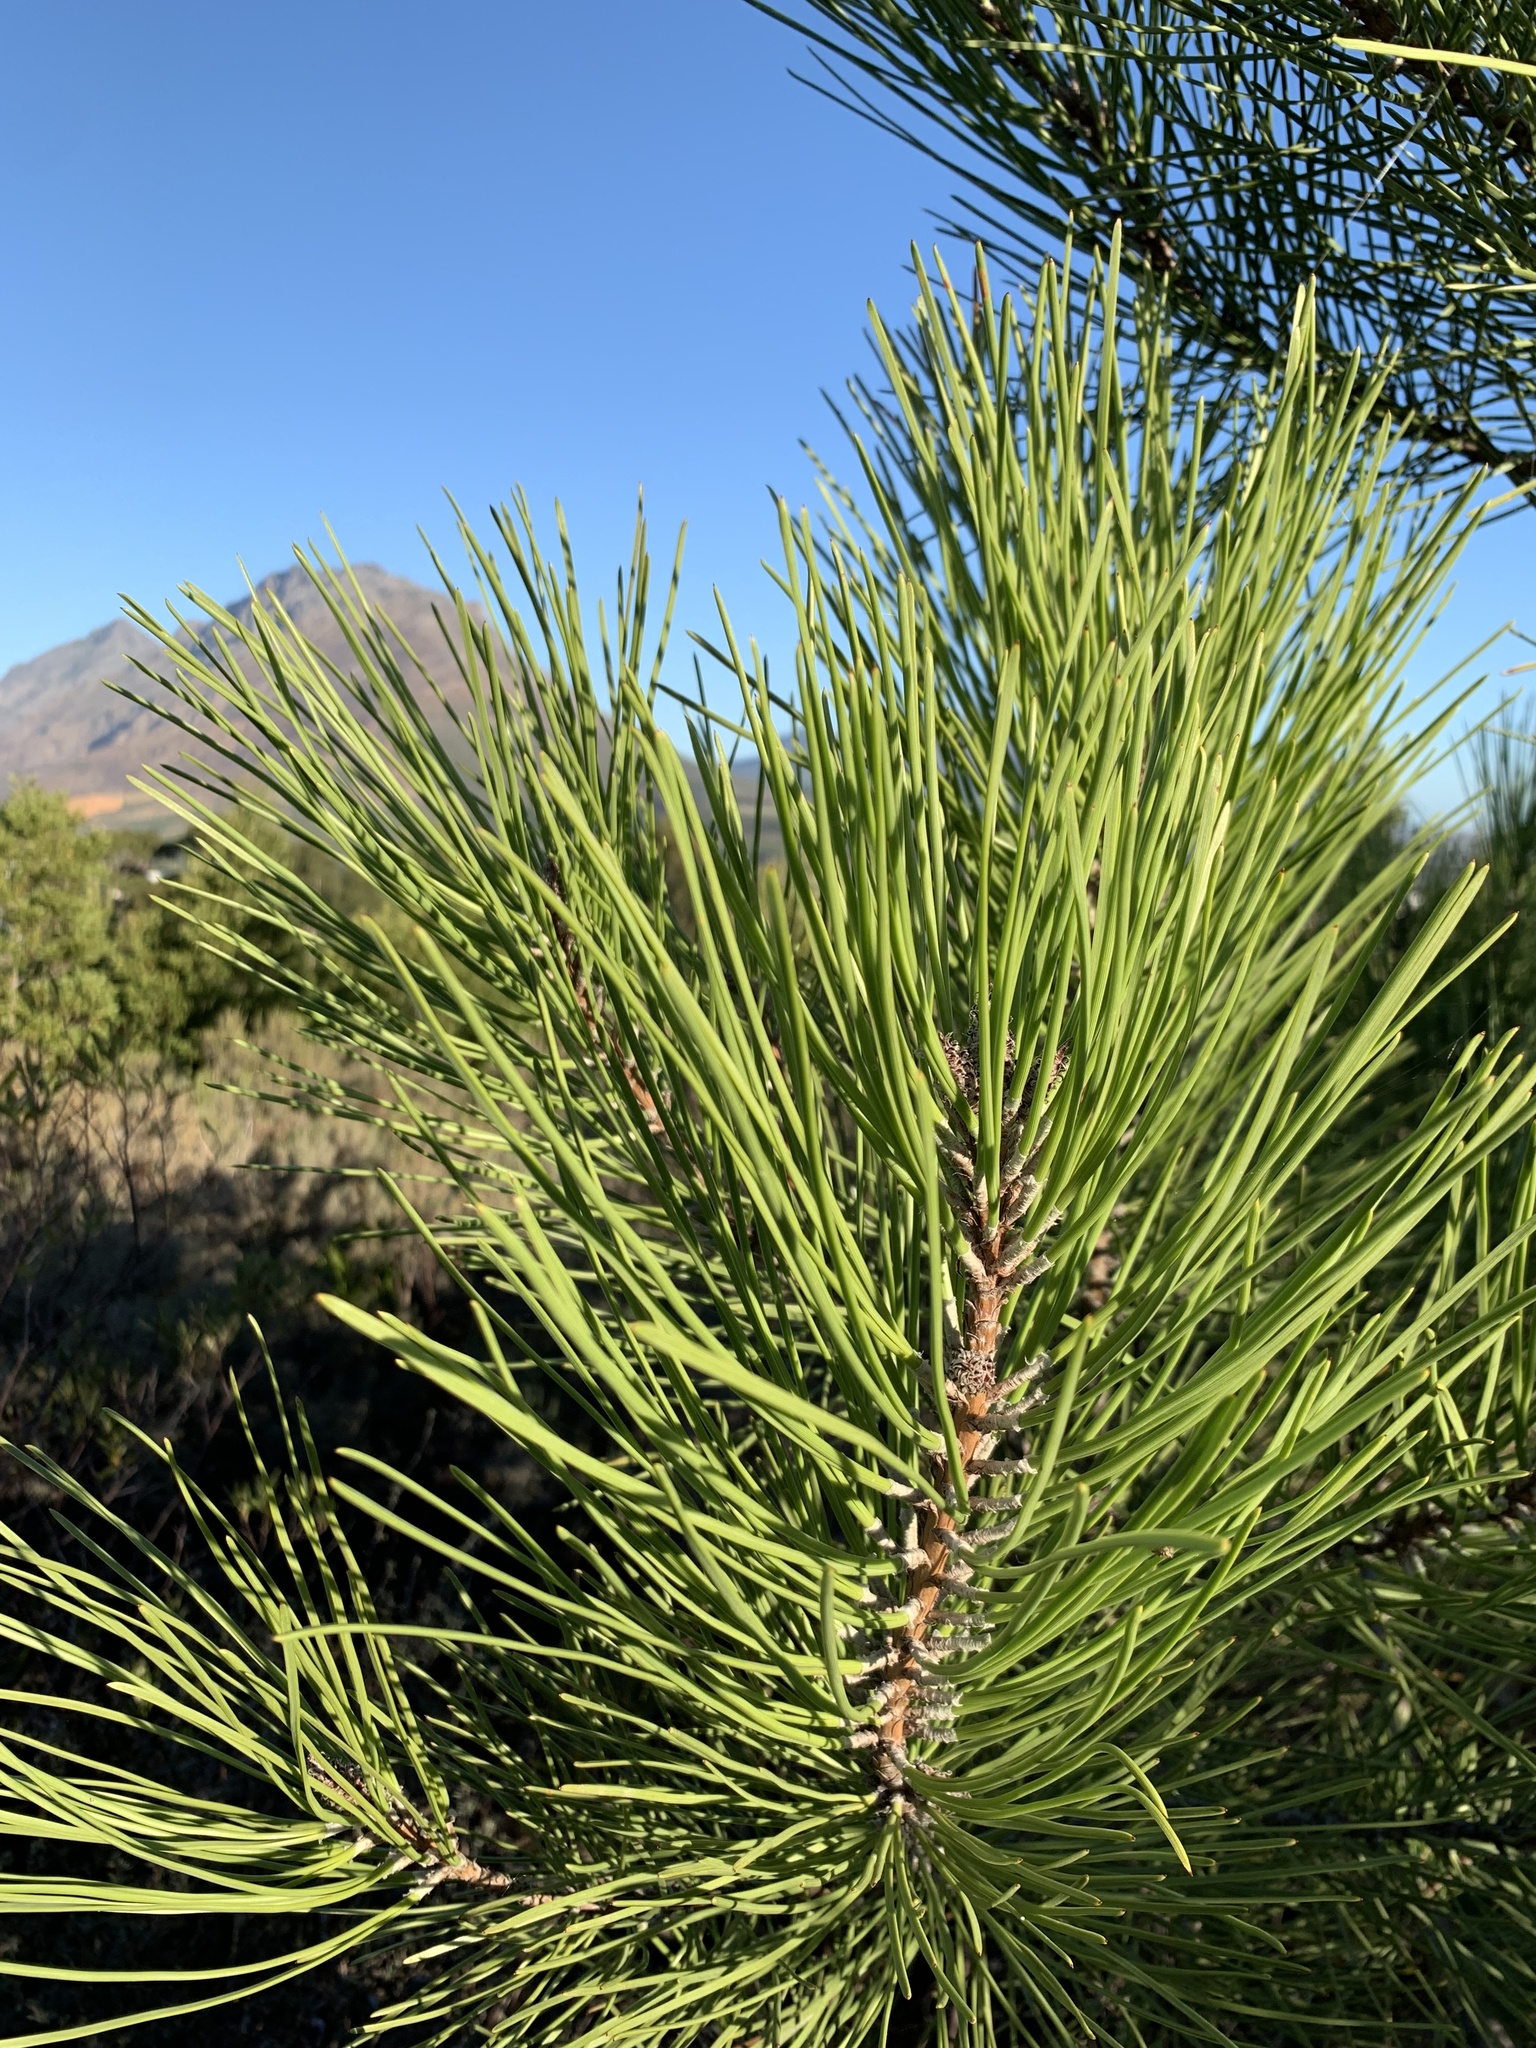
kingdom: Plantae
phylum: Tracheophyta
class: Pinopsida
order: Pinales
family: Pinaceae
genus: Pinus
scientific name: Pinus pinaster
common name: Maritime pine
